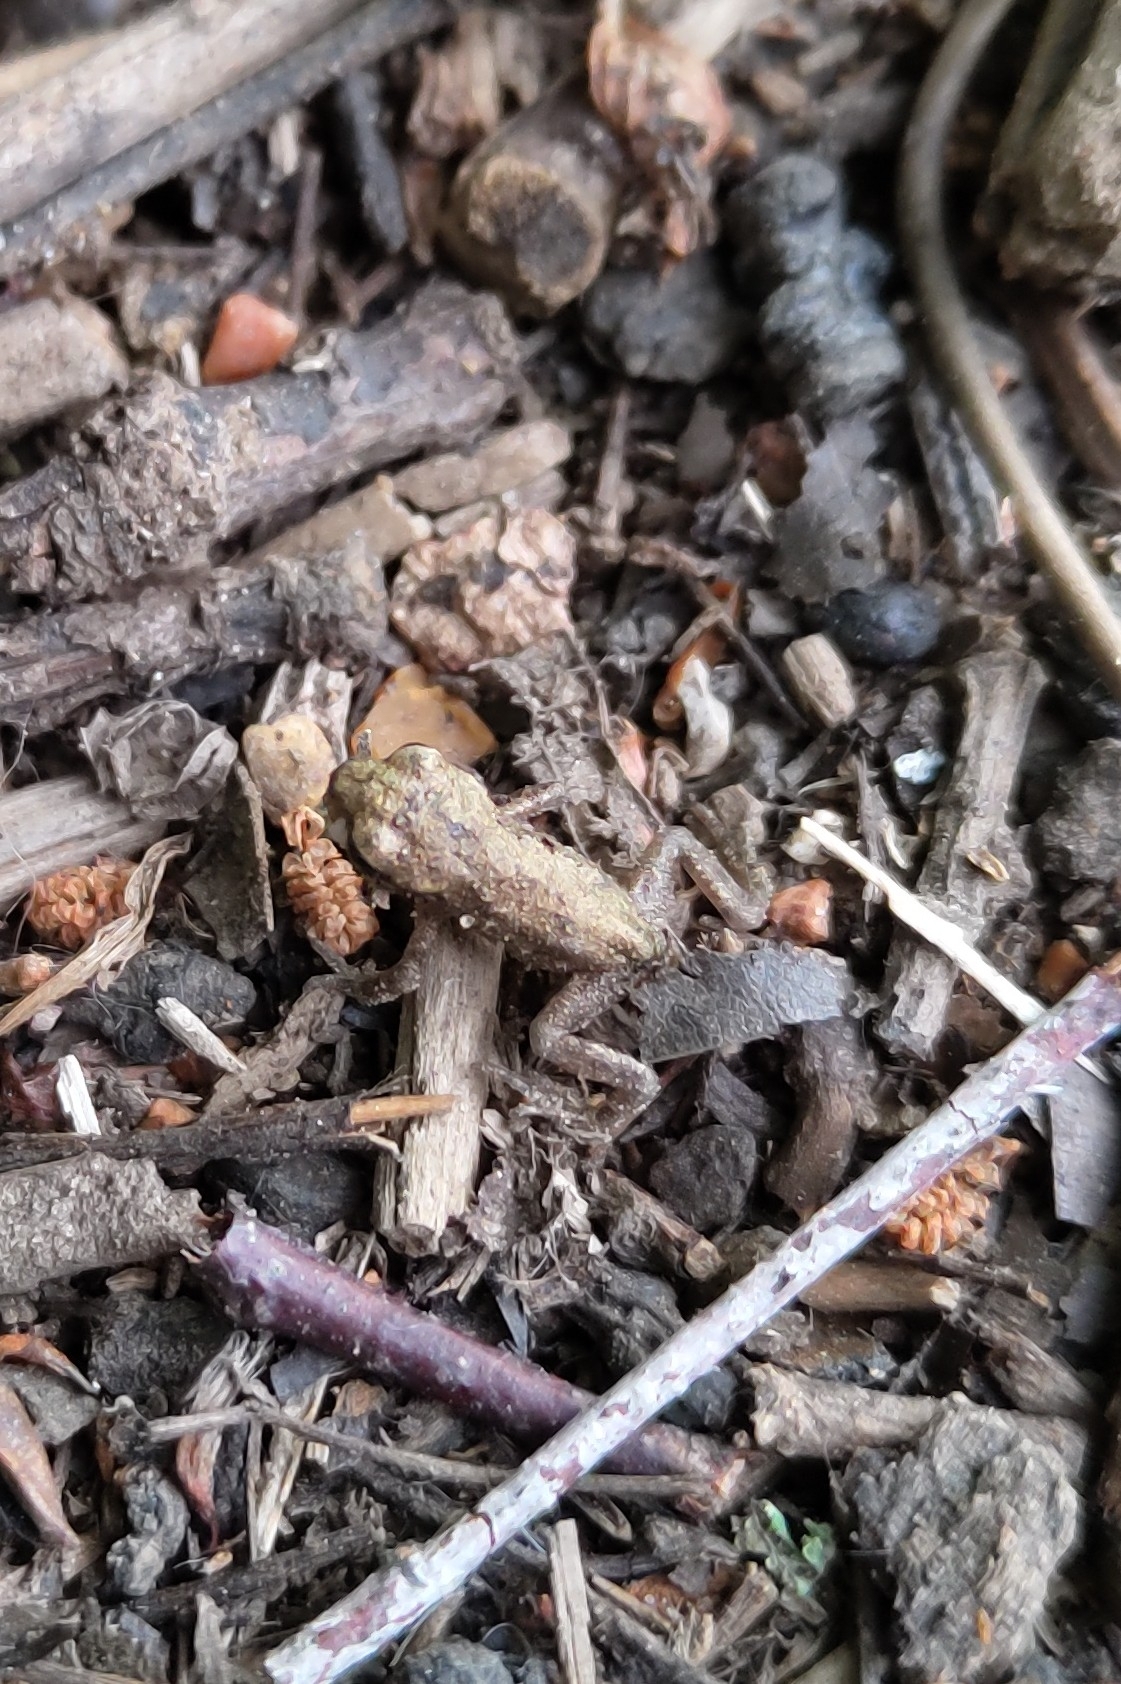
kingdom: Animalia
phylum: Chordata
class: Amphibia
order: Anura
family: Bufonidae
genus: Bufo
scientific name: Bufo bufo
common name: Common toad
